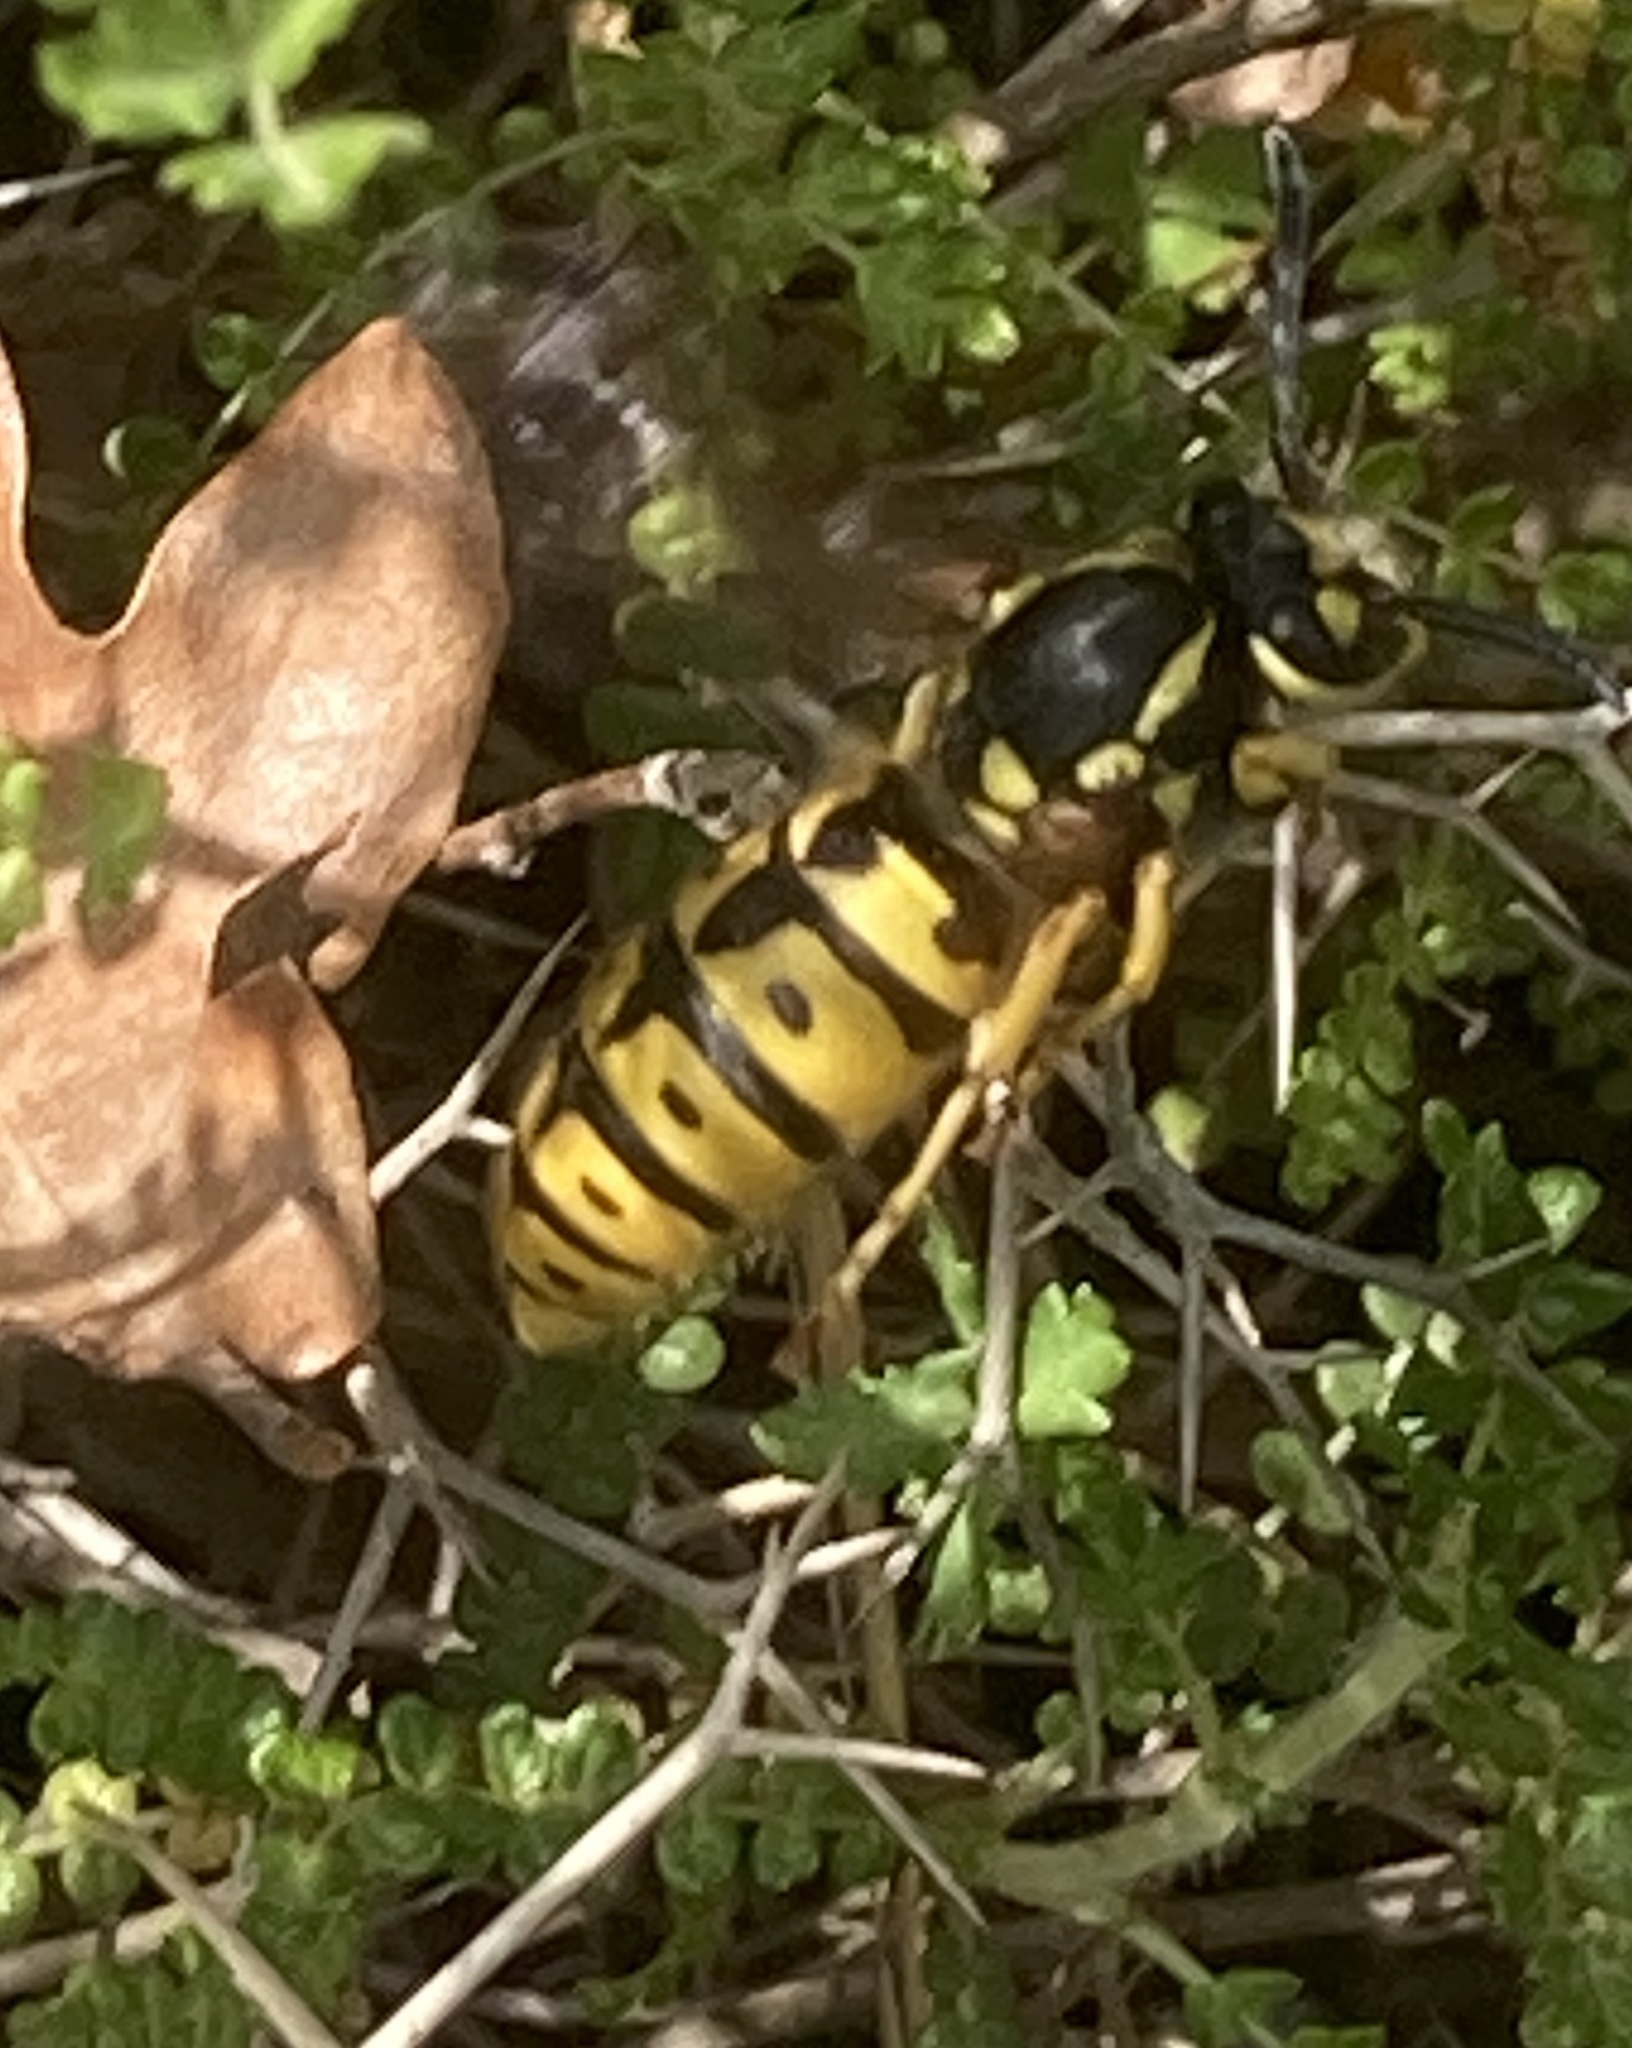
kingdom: Animalia
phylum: Arthropoda
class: Insecta
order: Hymenoptera
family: Vespidae
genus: Vespula
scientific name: Vespula germanica
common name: German wasp
